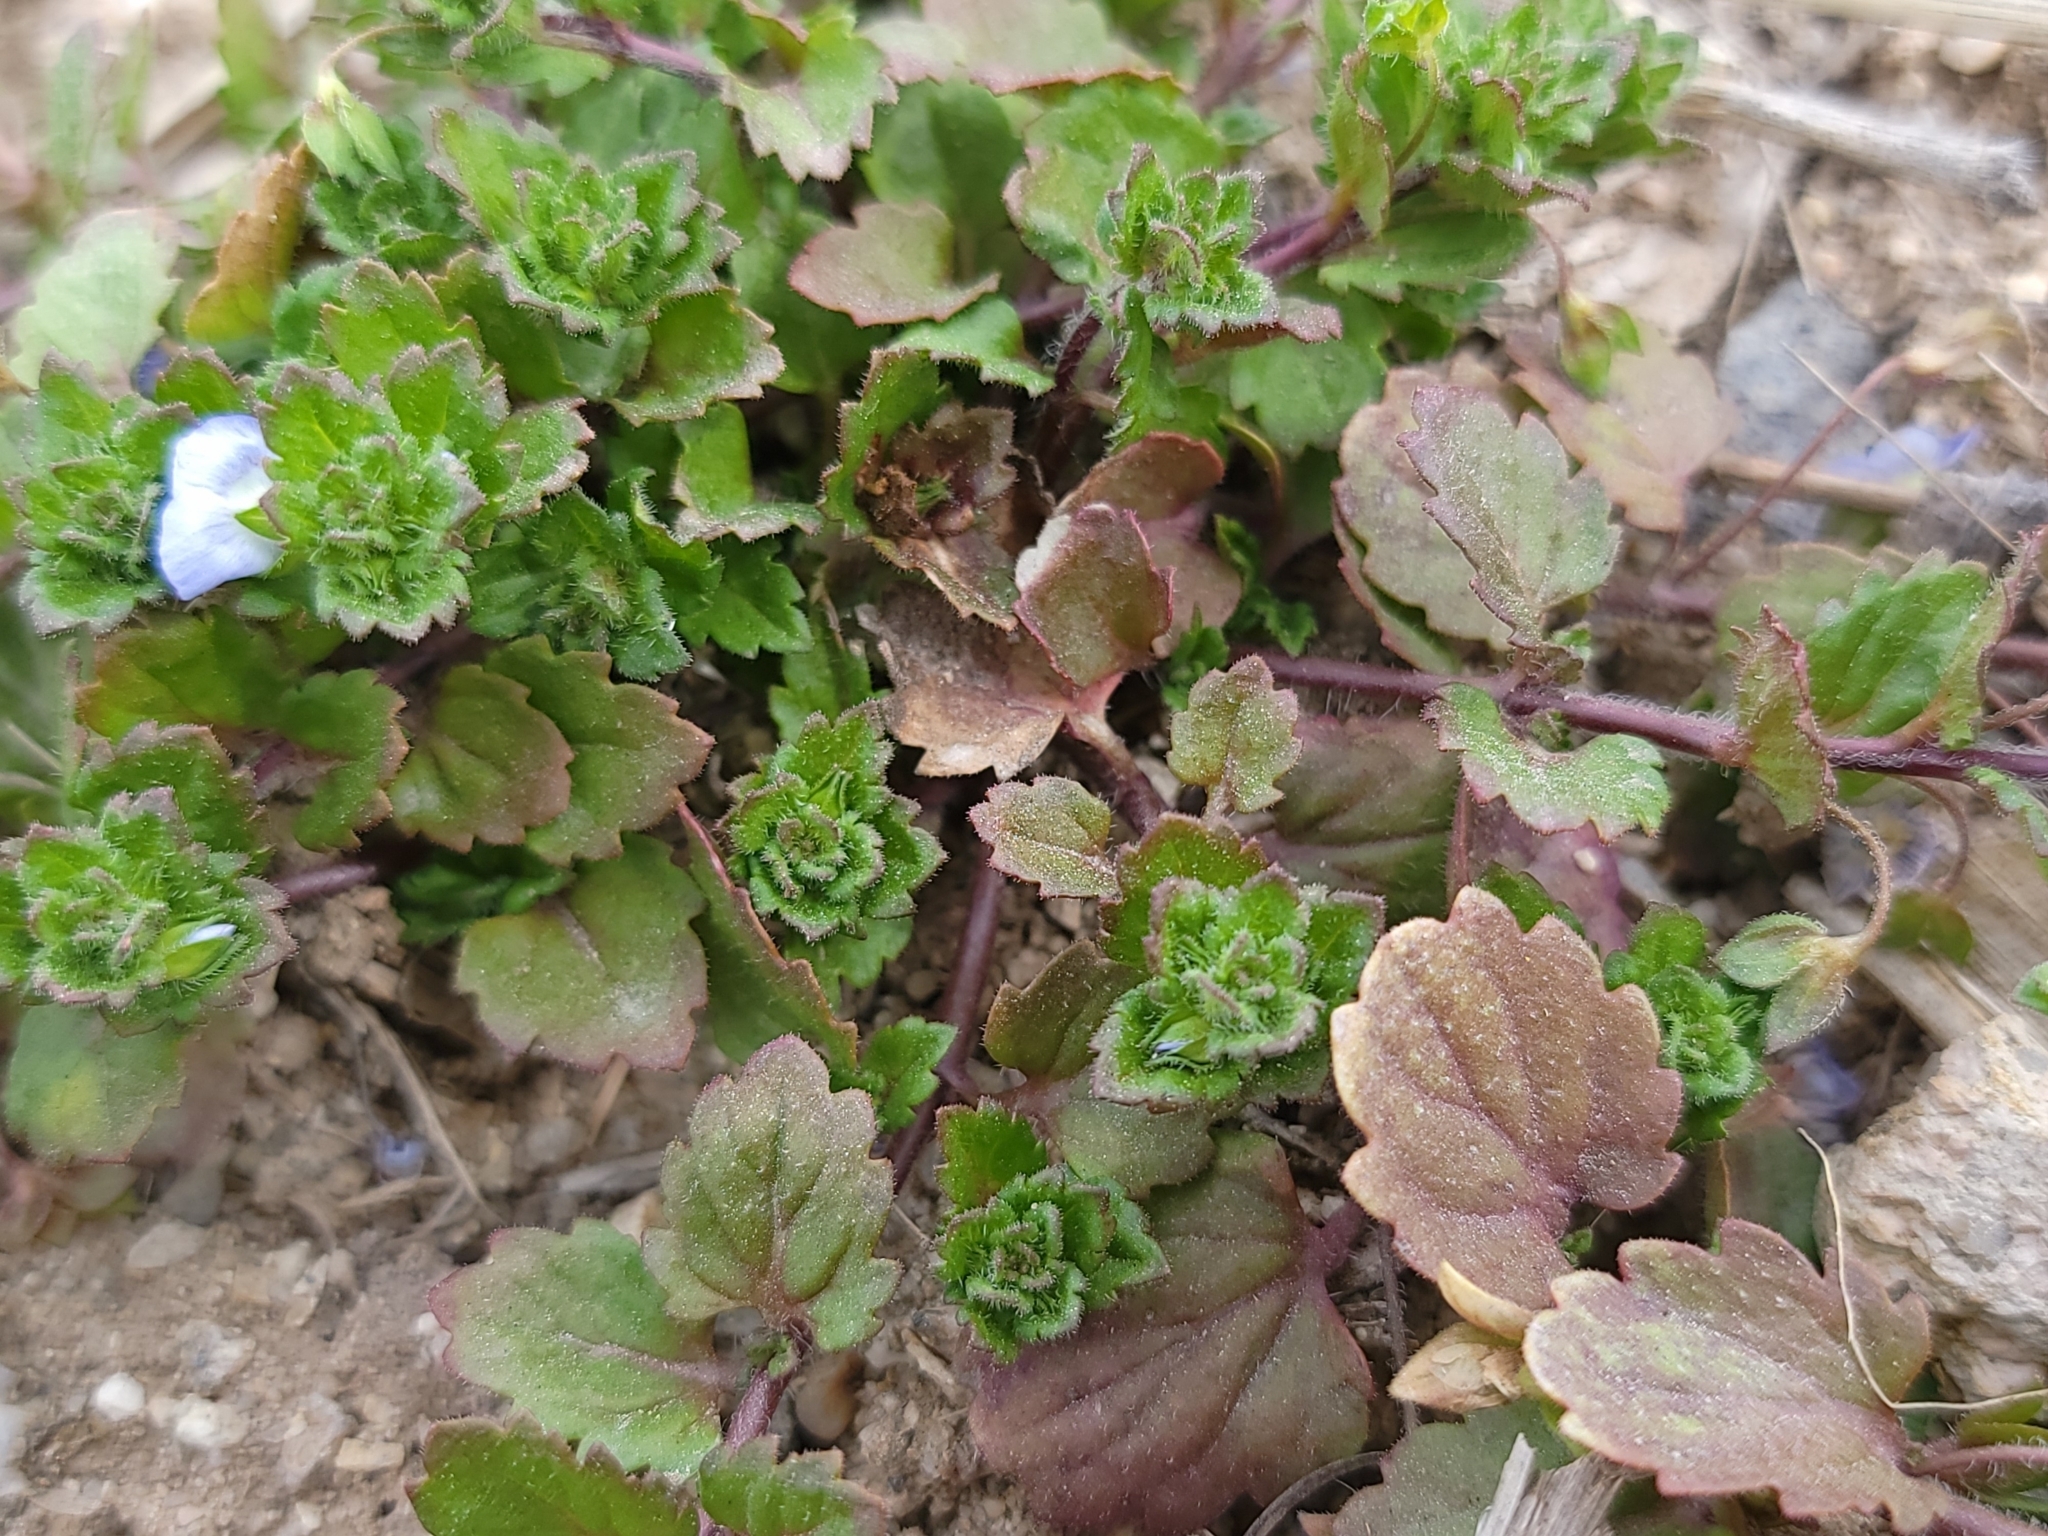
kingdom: Plantae
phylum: Tracheophyta
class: Magnoliopsida
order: Lamiales
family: Plantaginaceae
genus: Veronica
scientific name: Veronica persica
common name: Common field-speedwell
